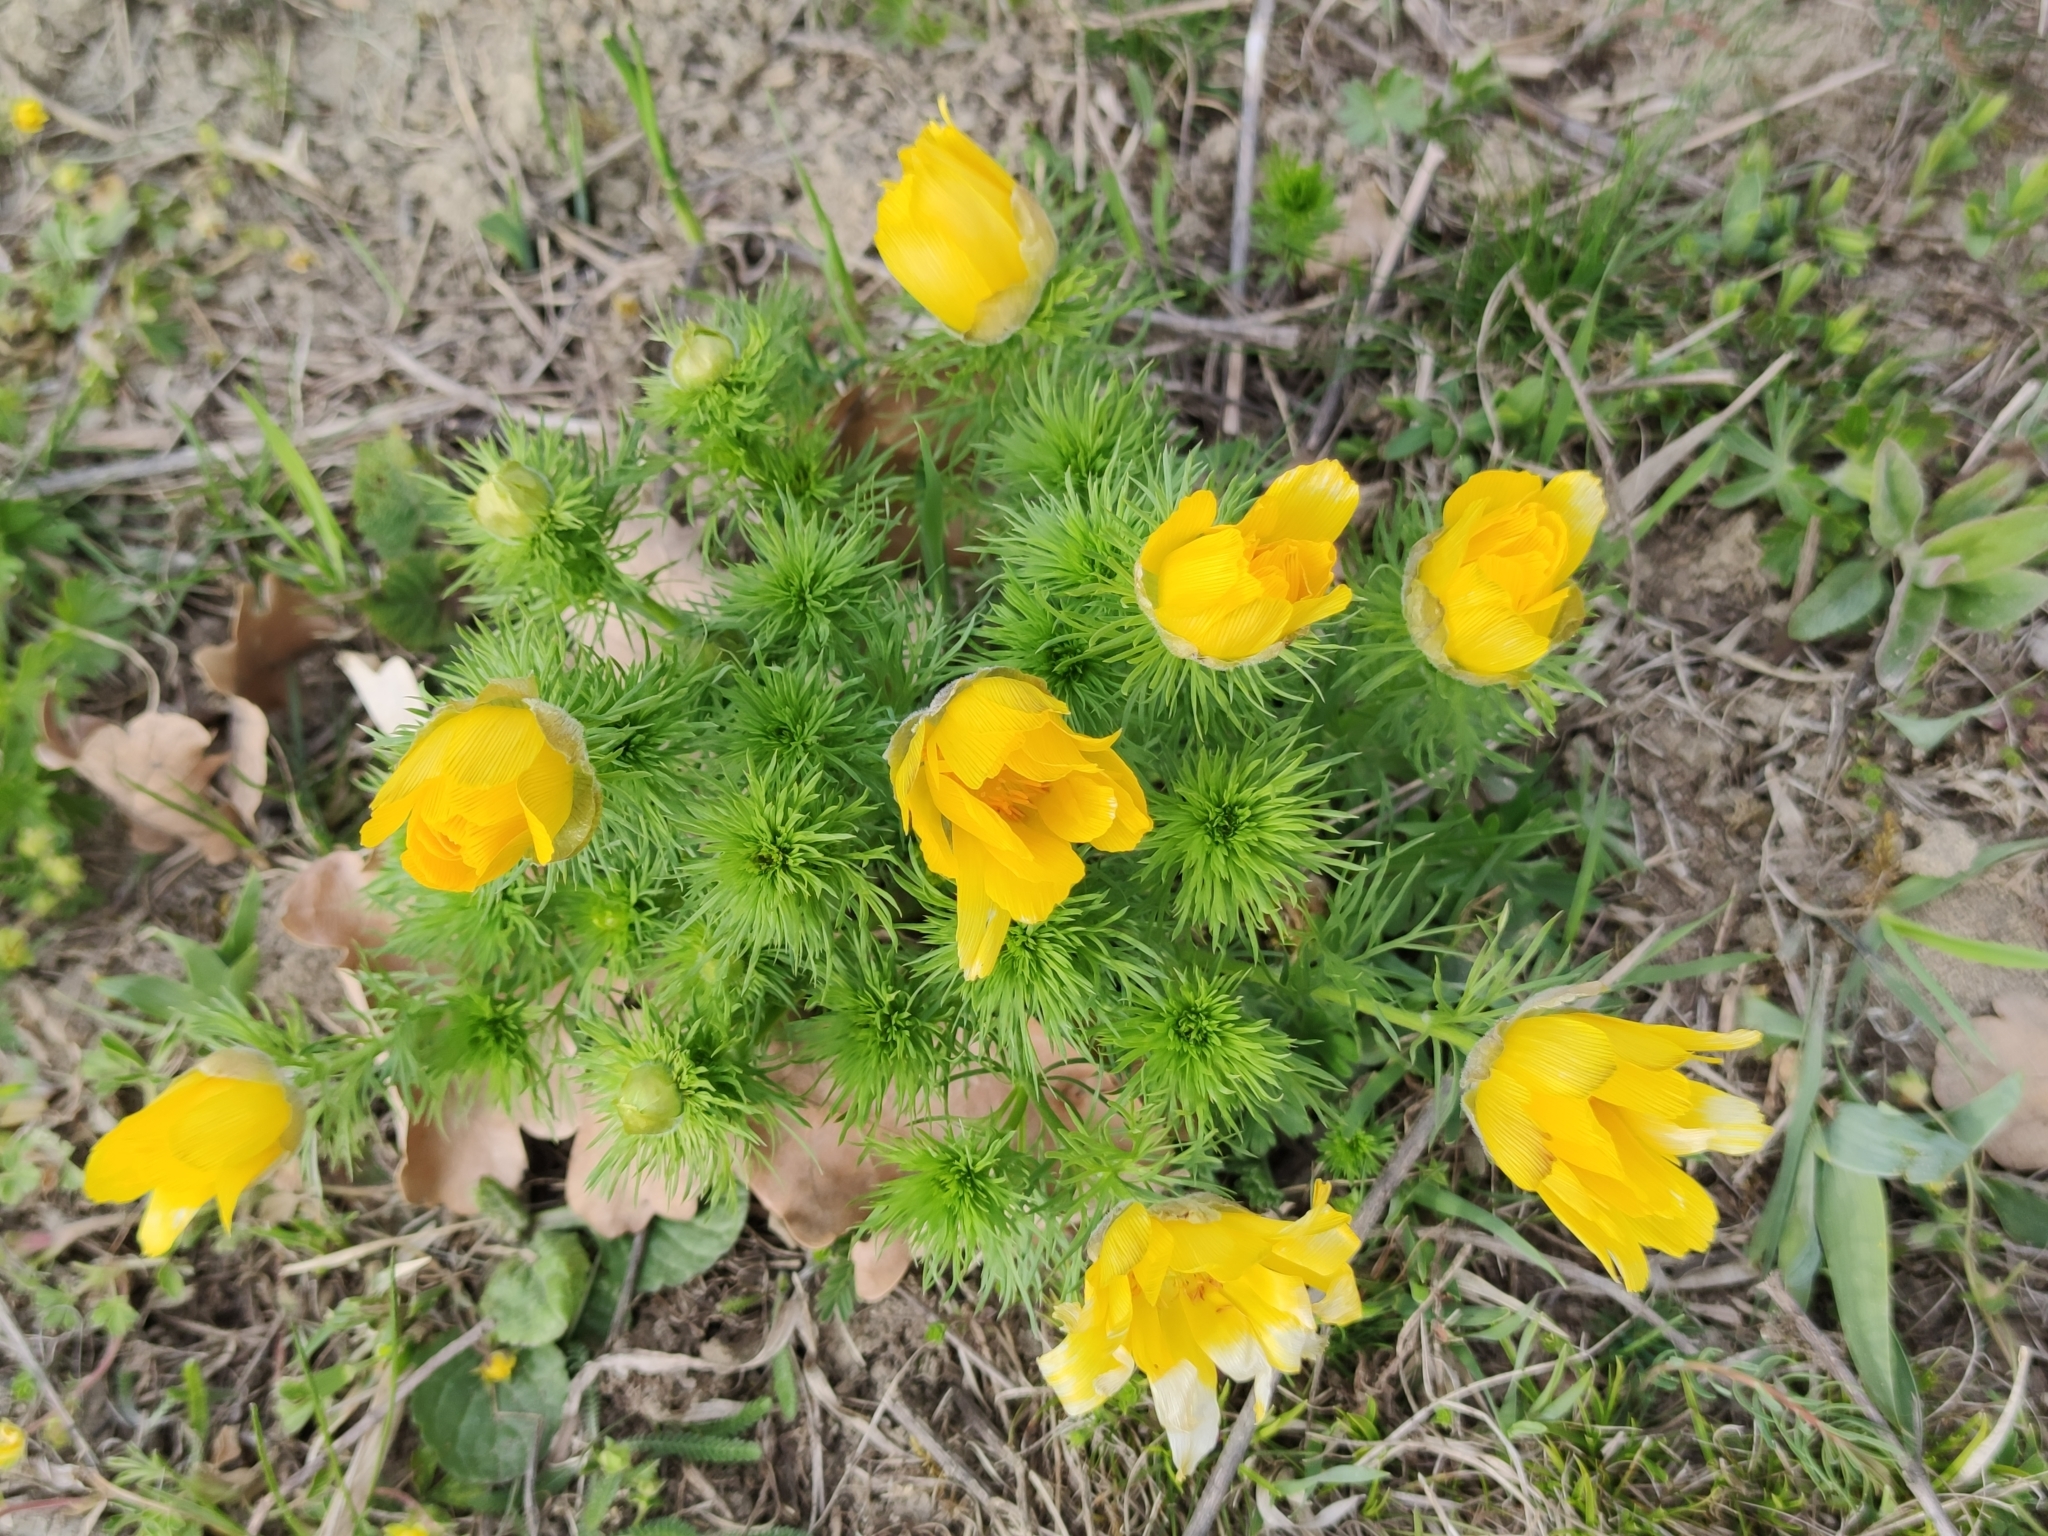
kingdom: Plantae
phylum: Tracheophyta
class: Magnoliopsida
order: Ranunculales
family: Ranunculaceae
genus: Adonis
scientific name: Adonis vernalis
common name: Yellow pheasants-eye
